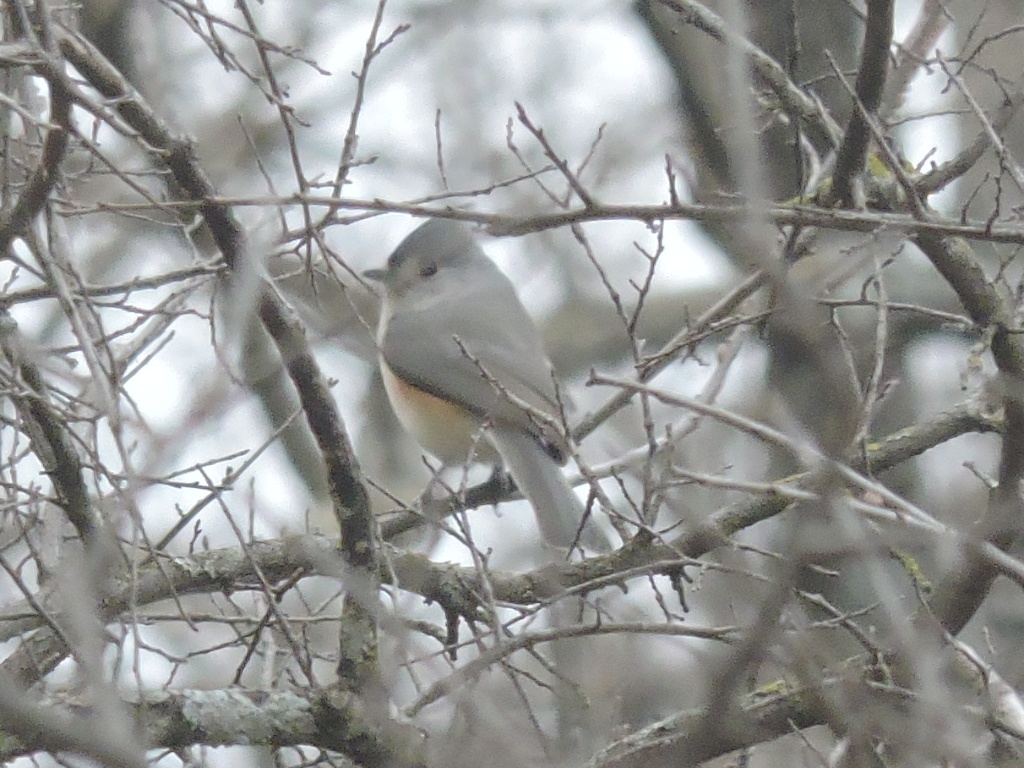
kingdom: Animalia
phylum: Chordata
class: Aves
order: Passeriformes
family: Paridae
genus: Baeolophus
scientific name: Baeolophus bicolor
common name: Tufted titmouse
